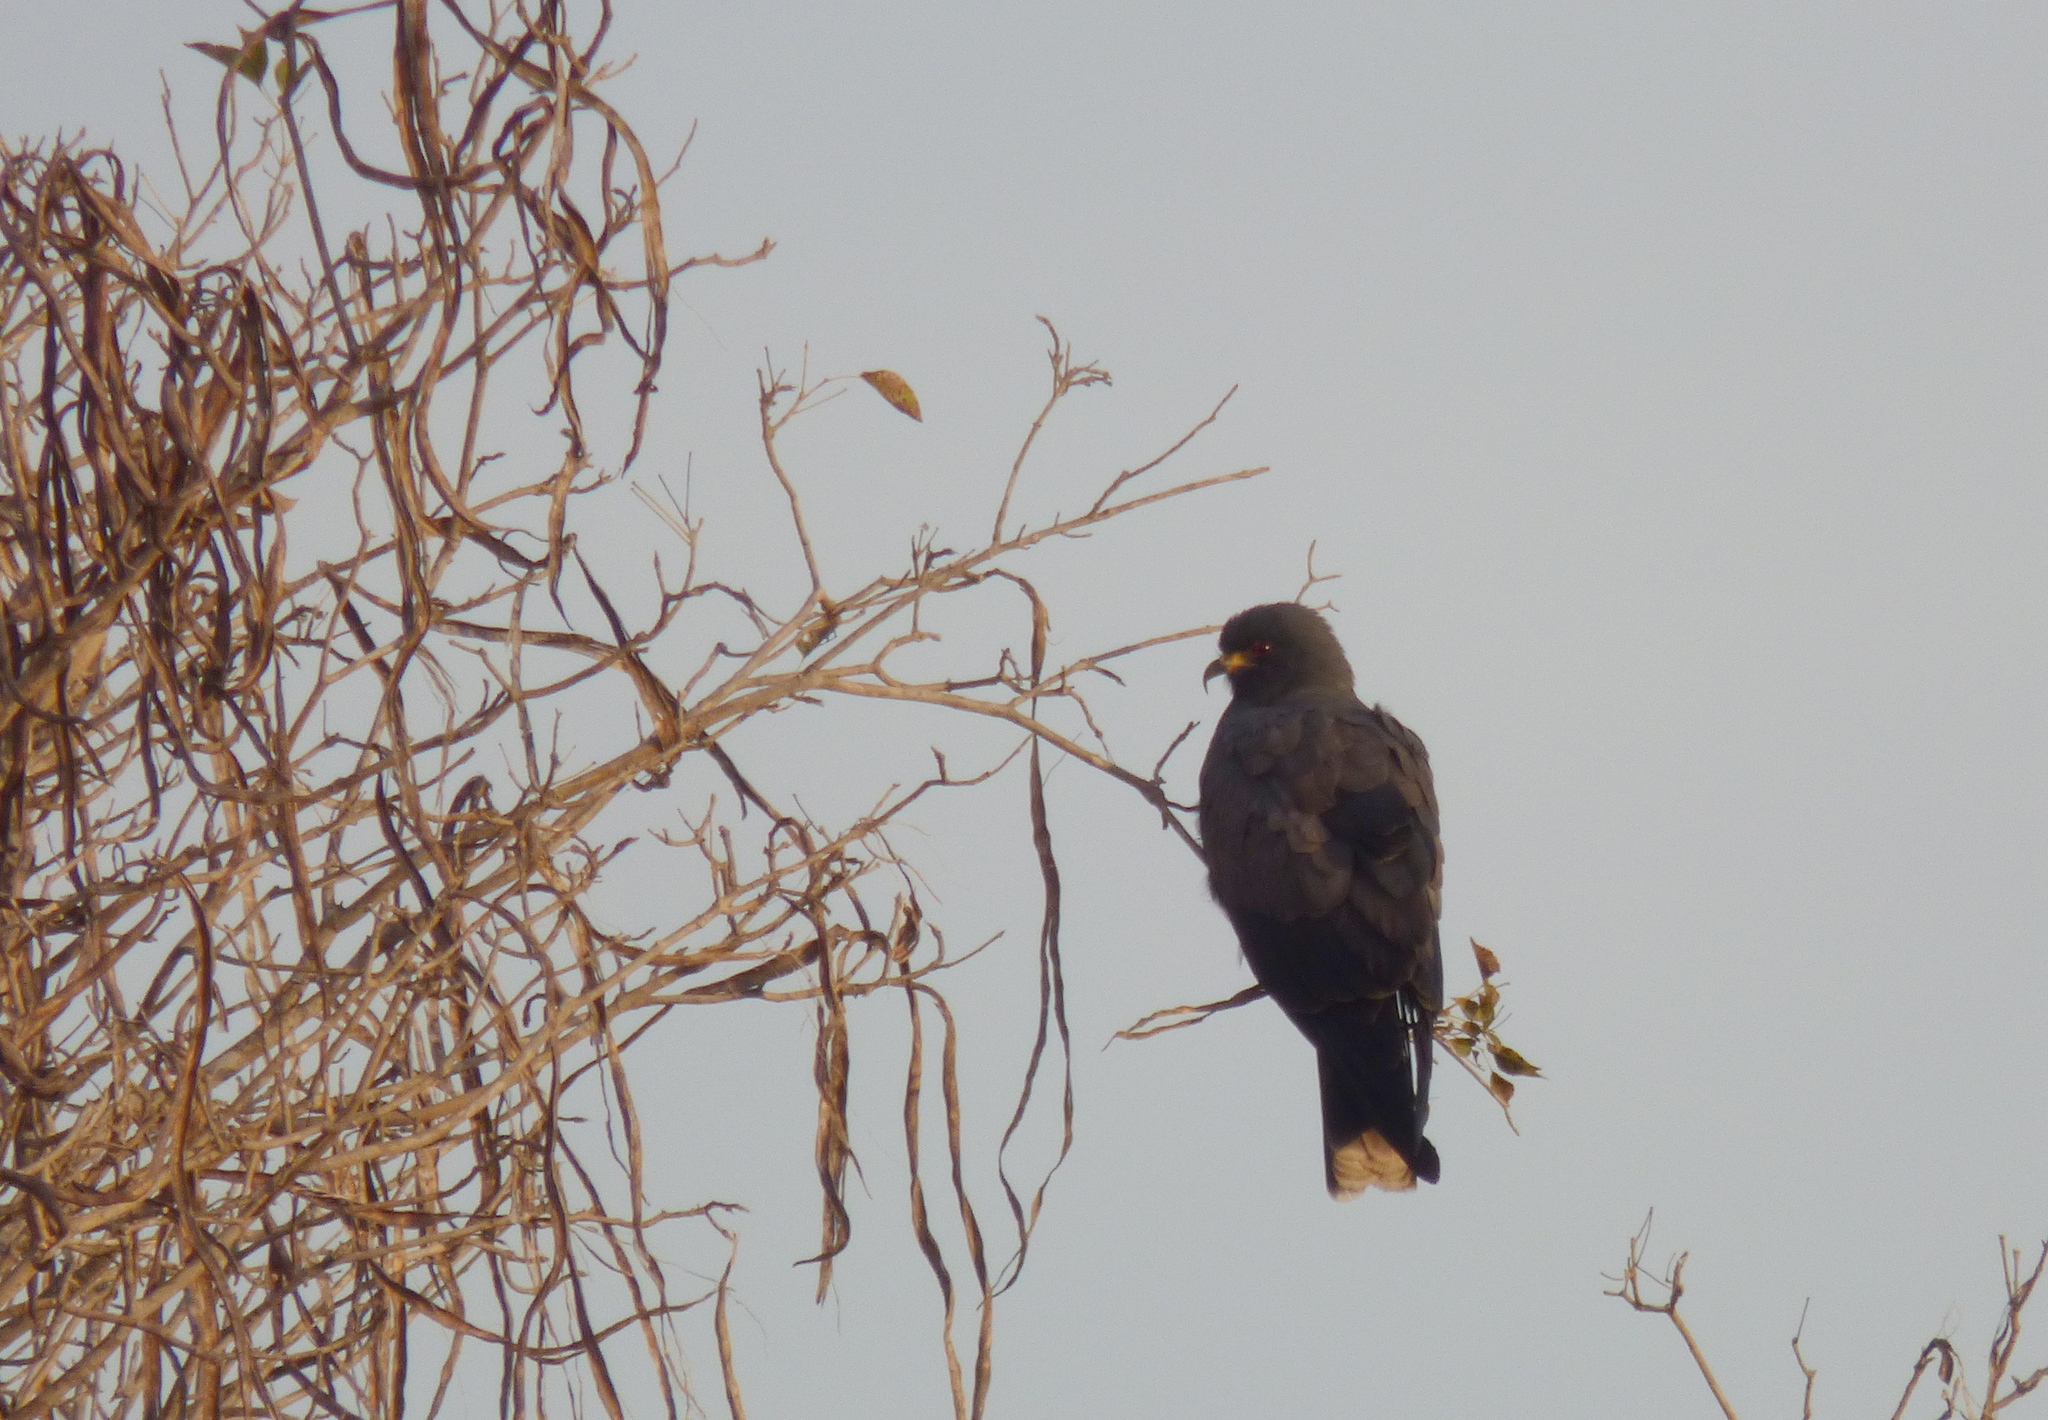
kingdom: Animalia
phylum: Chordata
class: Aves
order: Accipitriformes
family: Accipitridae
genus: Rostrhamus
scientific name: Rostrhamus sociabilis
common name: Snail kite
